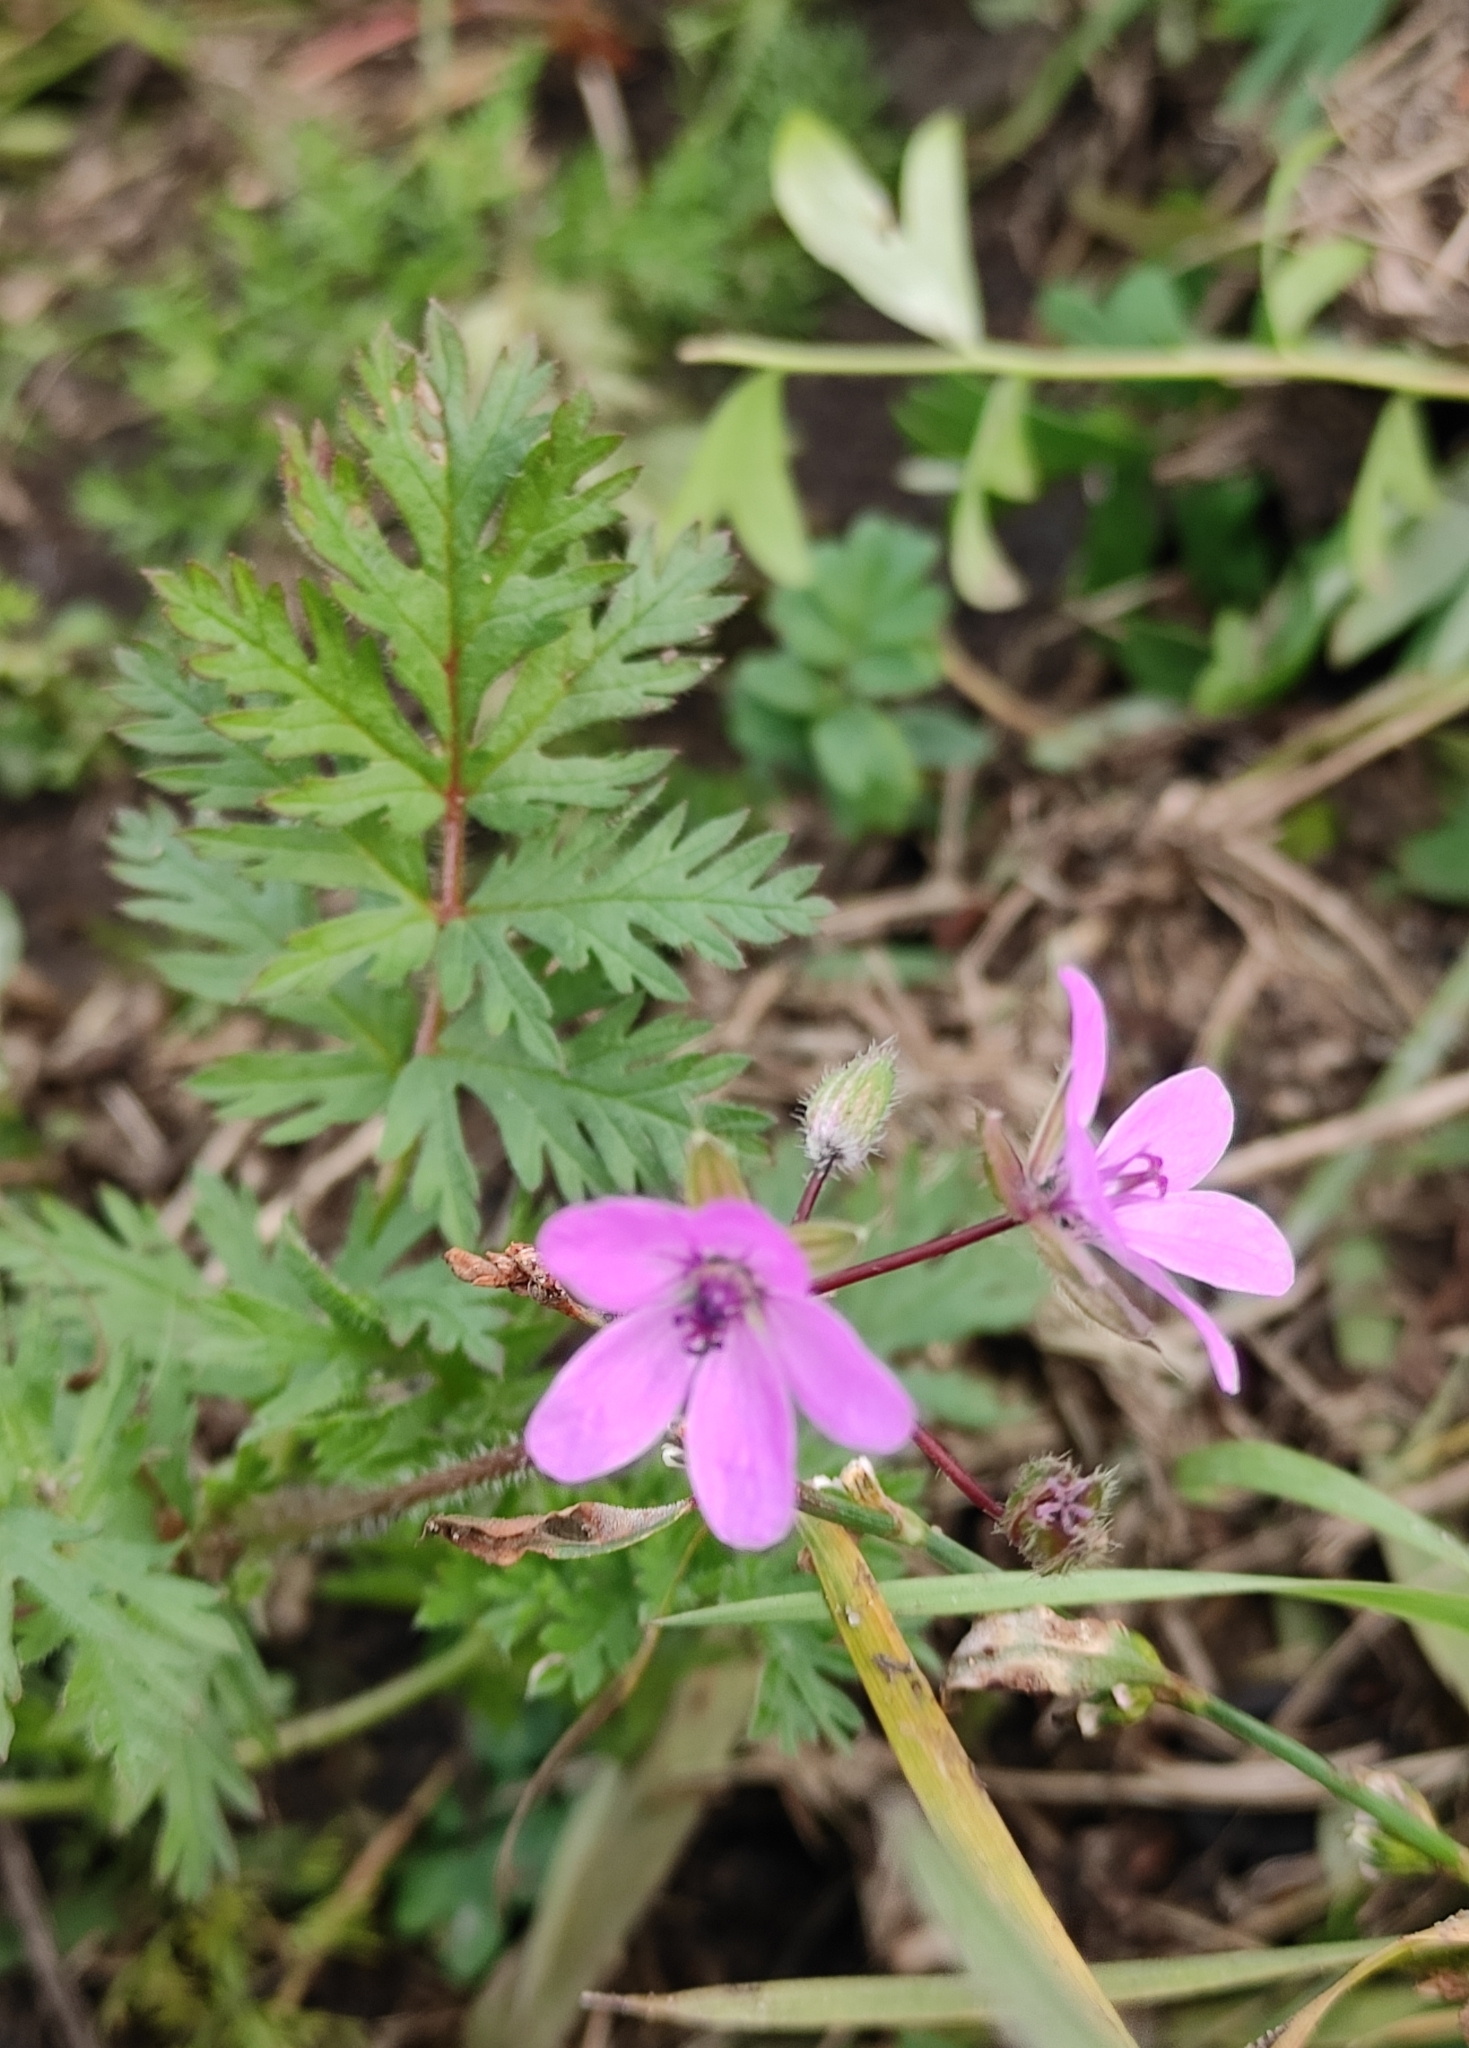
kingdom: Plantae
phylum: Tracheophyta
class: Magnoliopsida
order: Geraniales
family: Geraniaceae
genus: Erodium
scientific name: Erodium cicutarium
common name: Common stork's-bill
